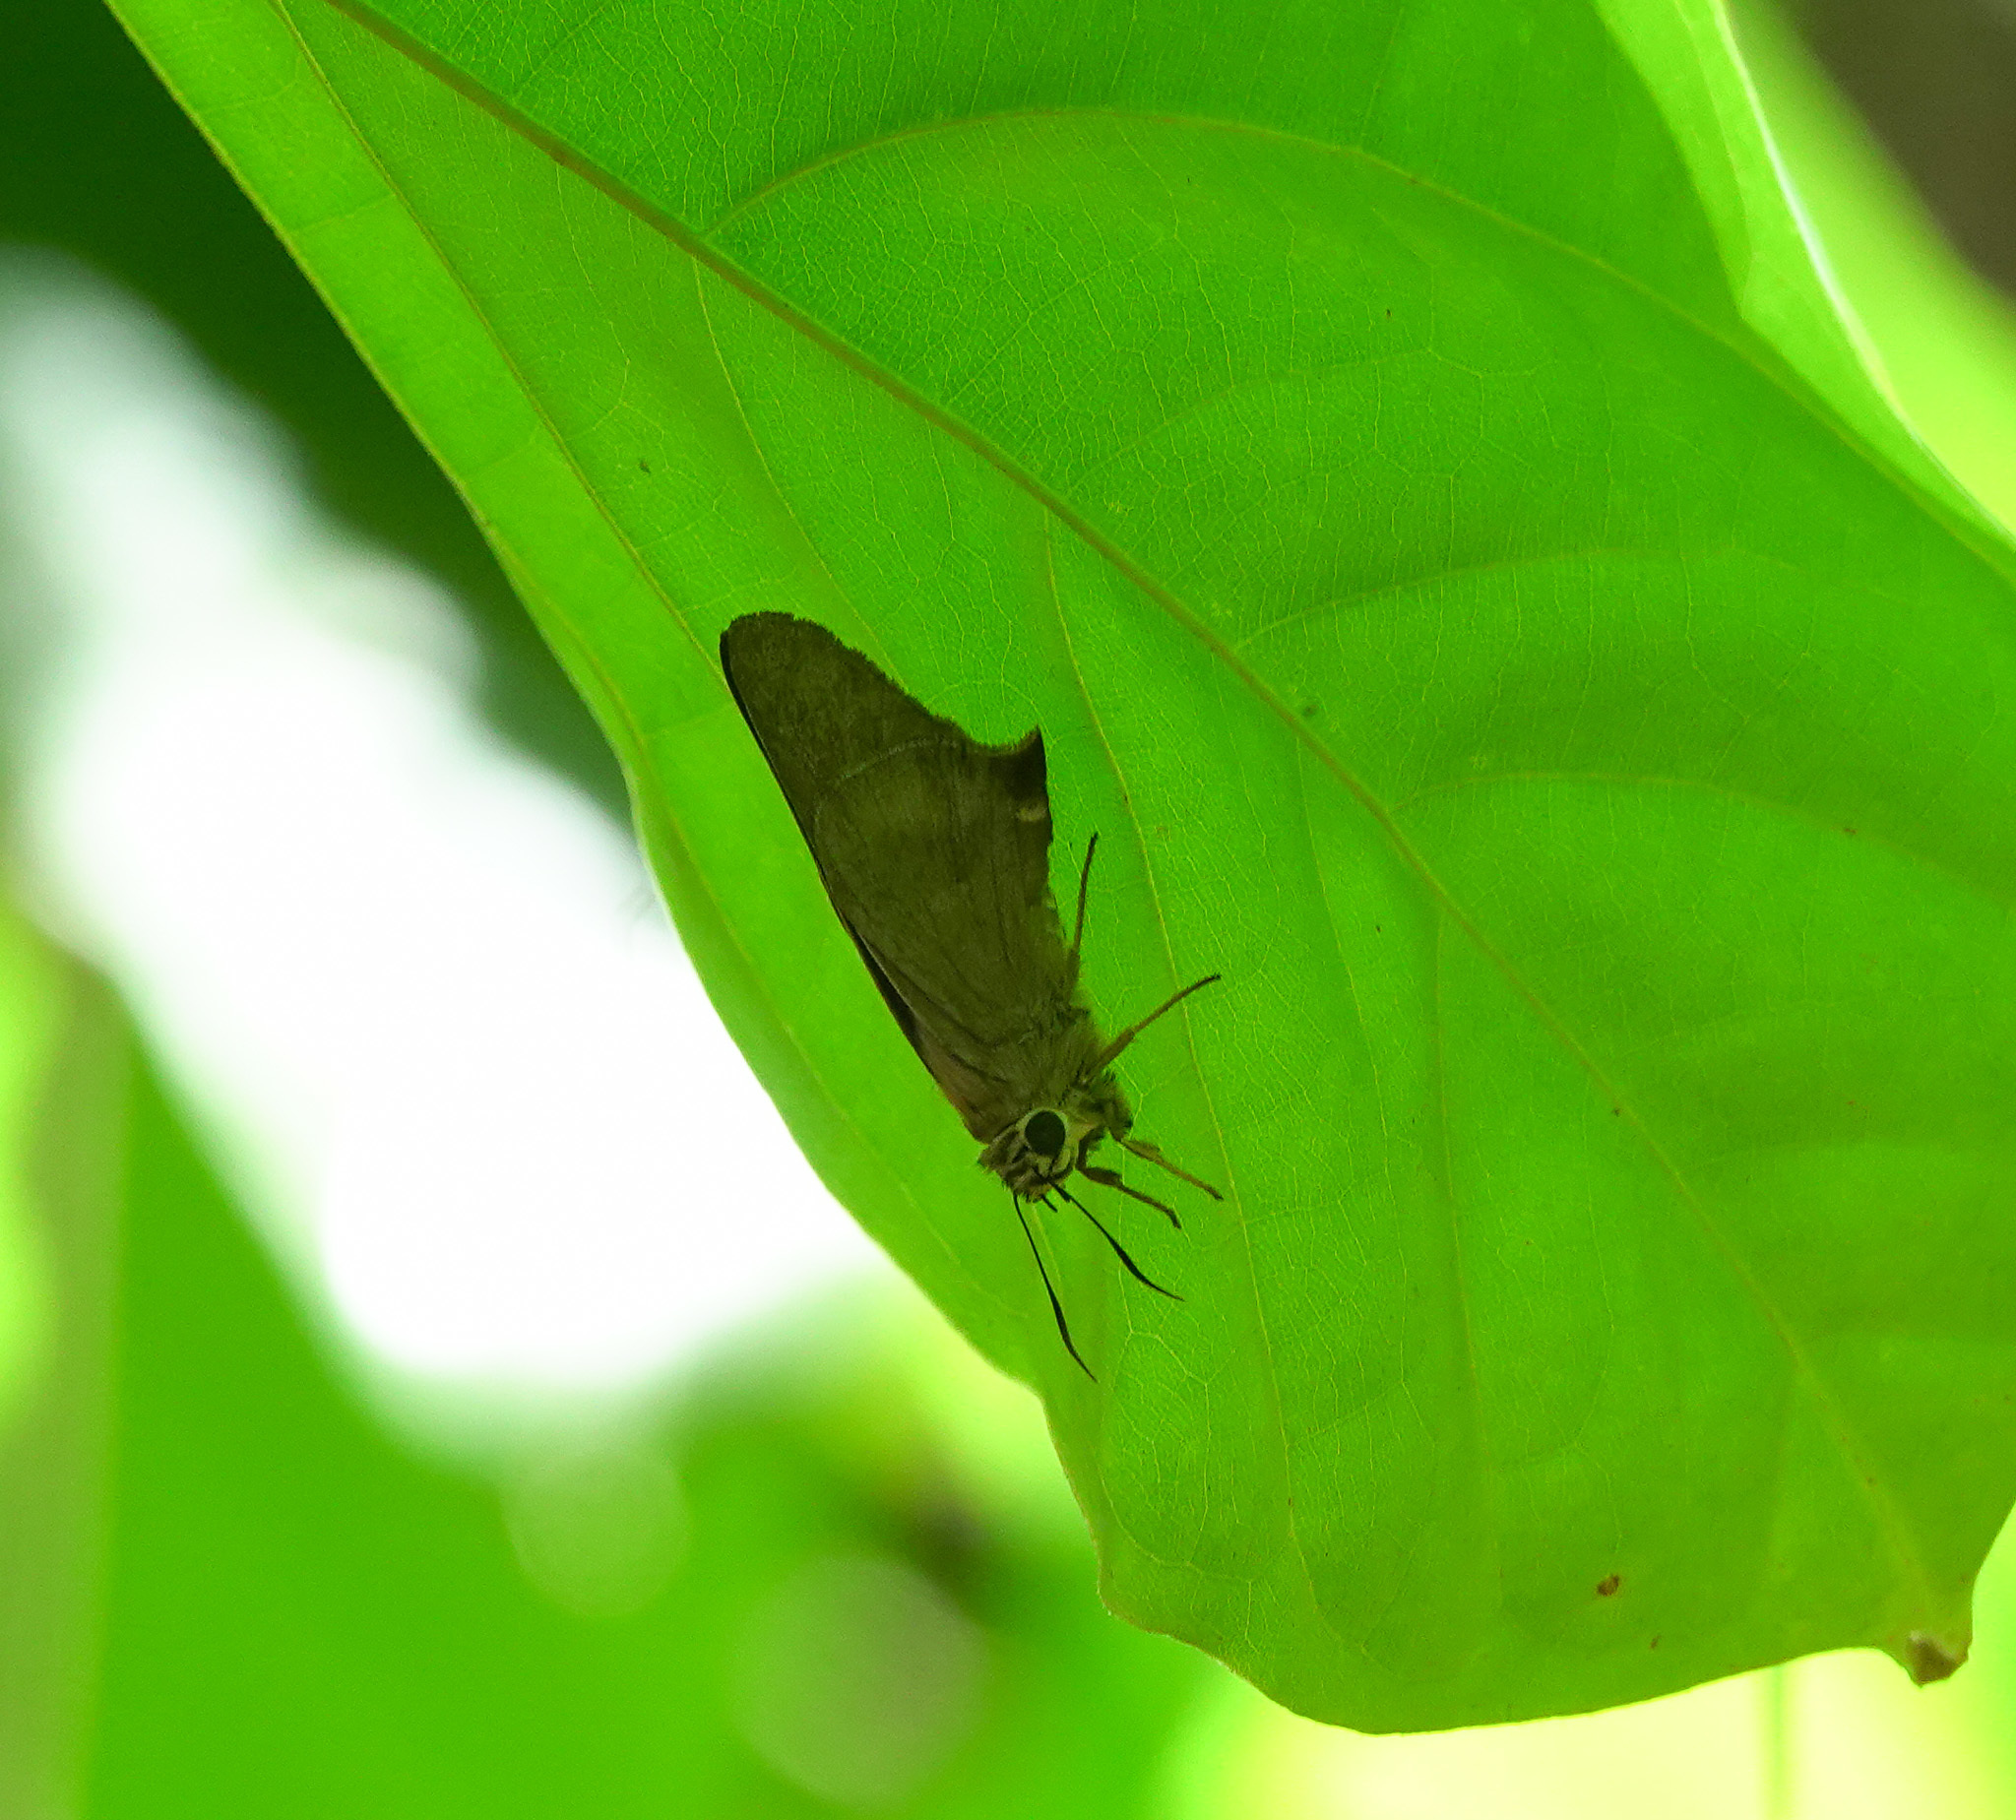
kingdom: Animalia
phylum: Arthropoda
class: Insecta
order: Lepidoptera
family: Hesperiidae
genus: Badamia
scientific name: Badamia exclamationis
